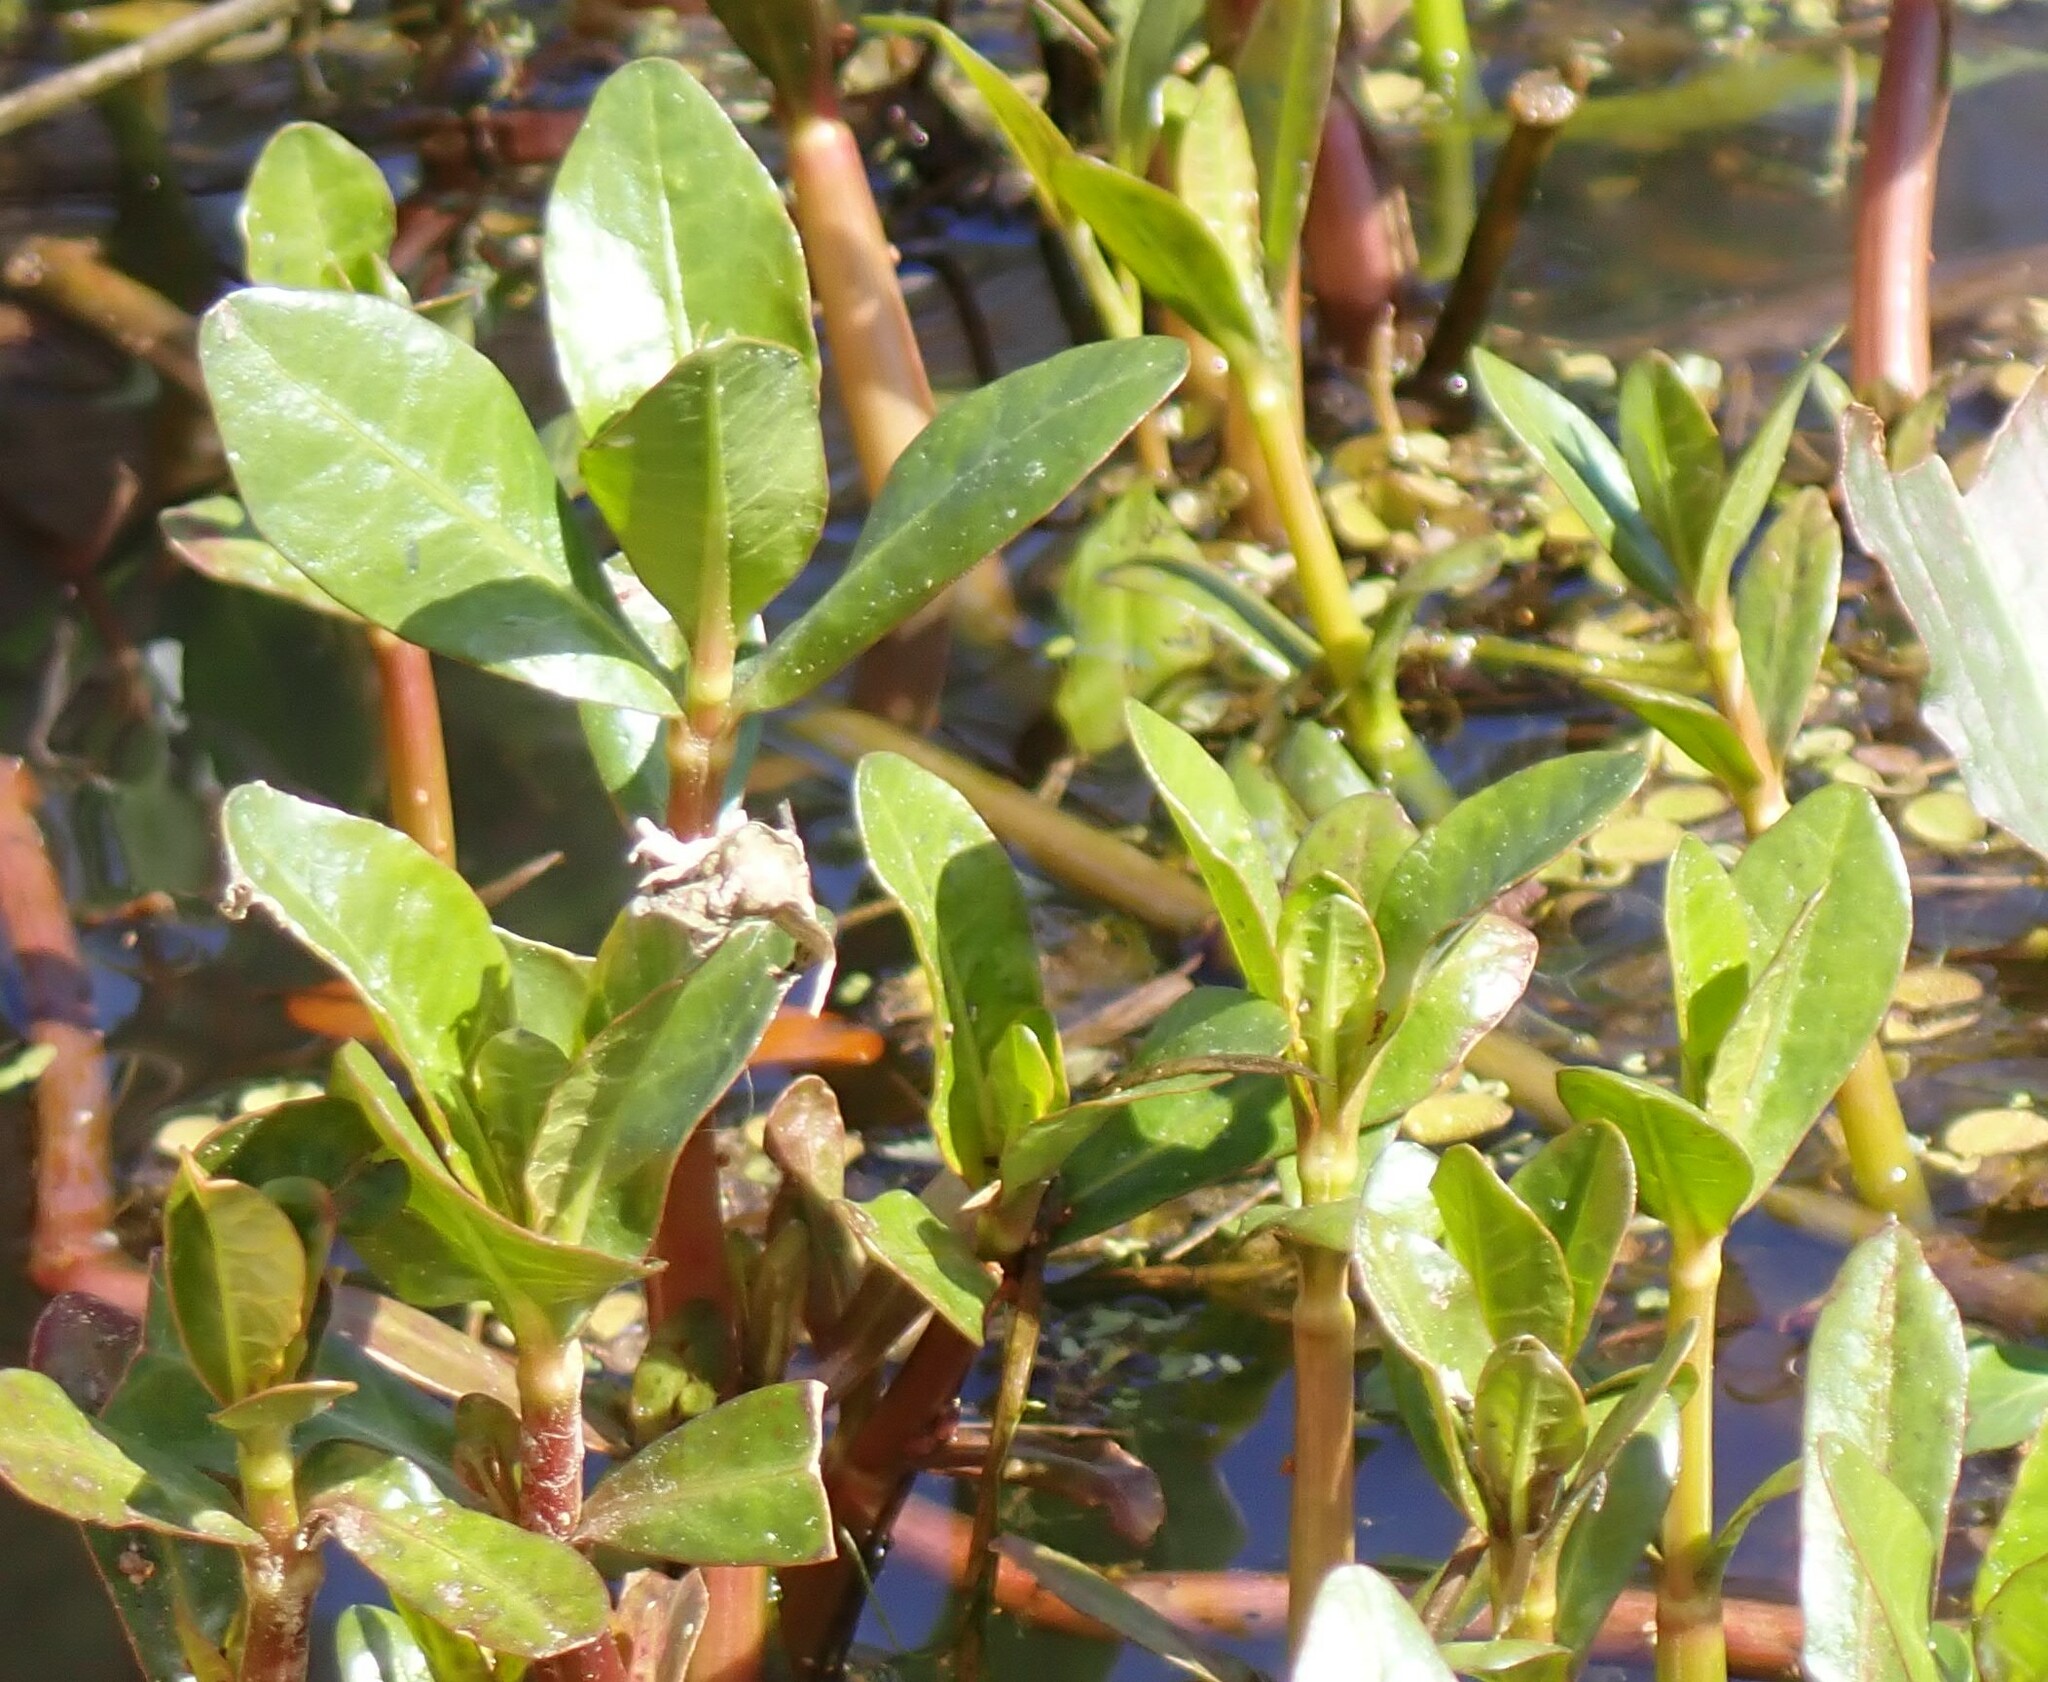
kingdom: Plantae
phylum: Tracheophyta
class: Magnoliopsida
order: Caryophyllales
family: Amaranthaceae
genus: Alternanthera
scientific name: Alternanthera philoxeroides
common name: Alligatorweed
